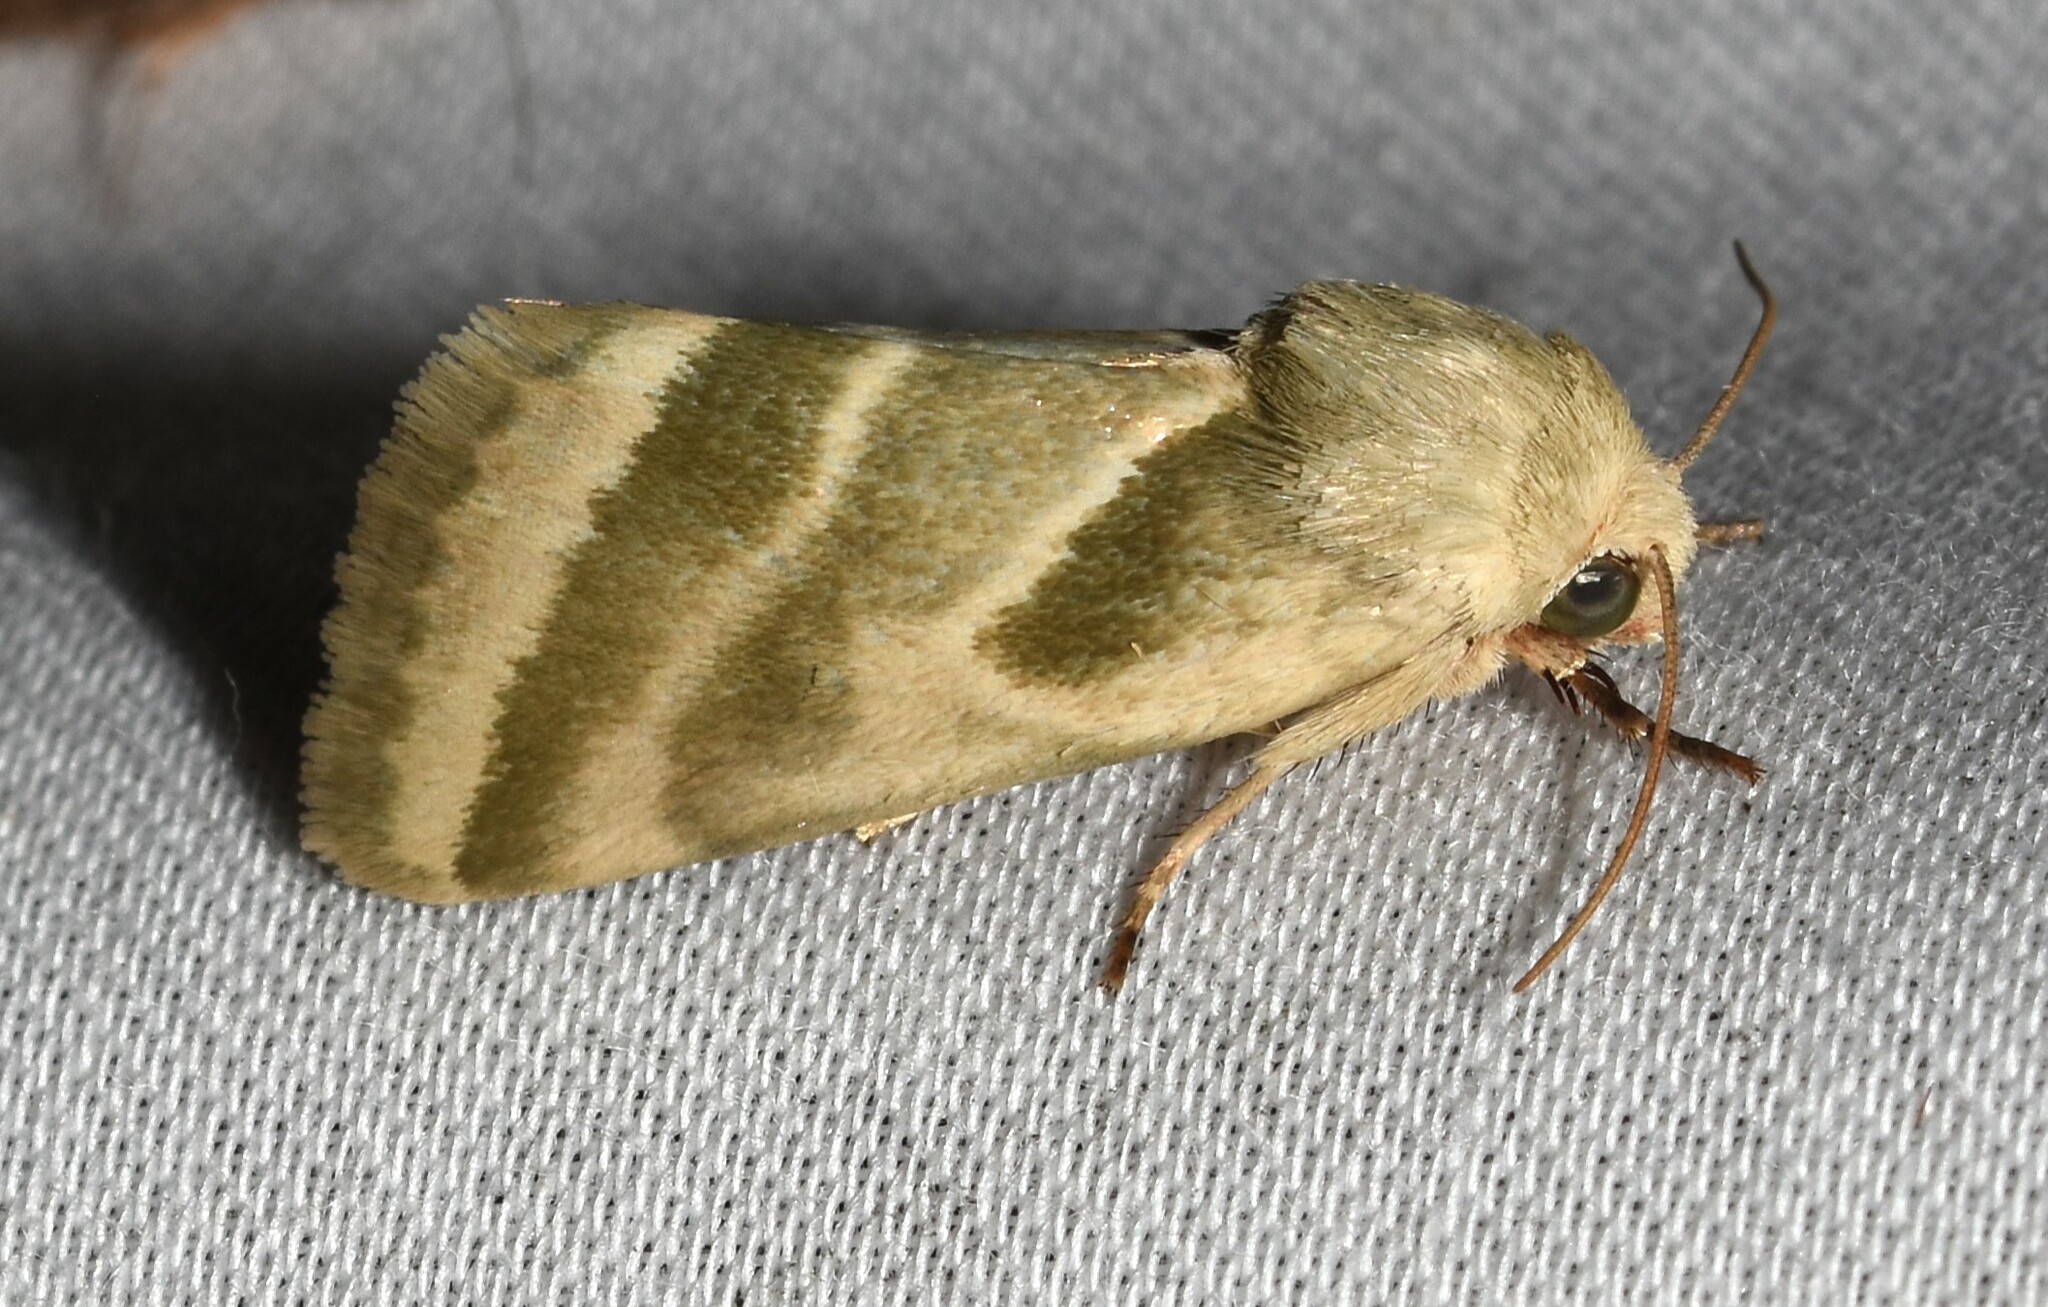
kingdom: Animalia
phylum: Arthropoda
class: Insecta
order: Lepidoptera
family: Noctuidae
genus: Schinia
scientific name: Schinia trifascia
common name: Three-lined flower moth
